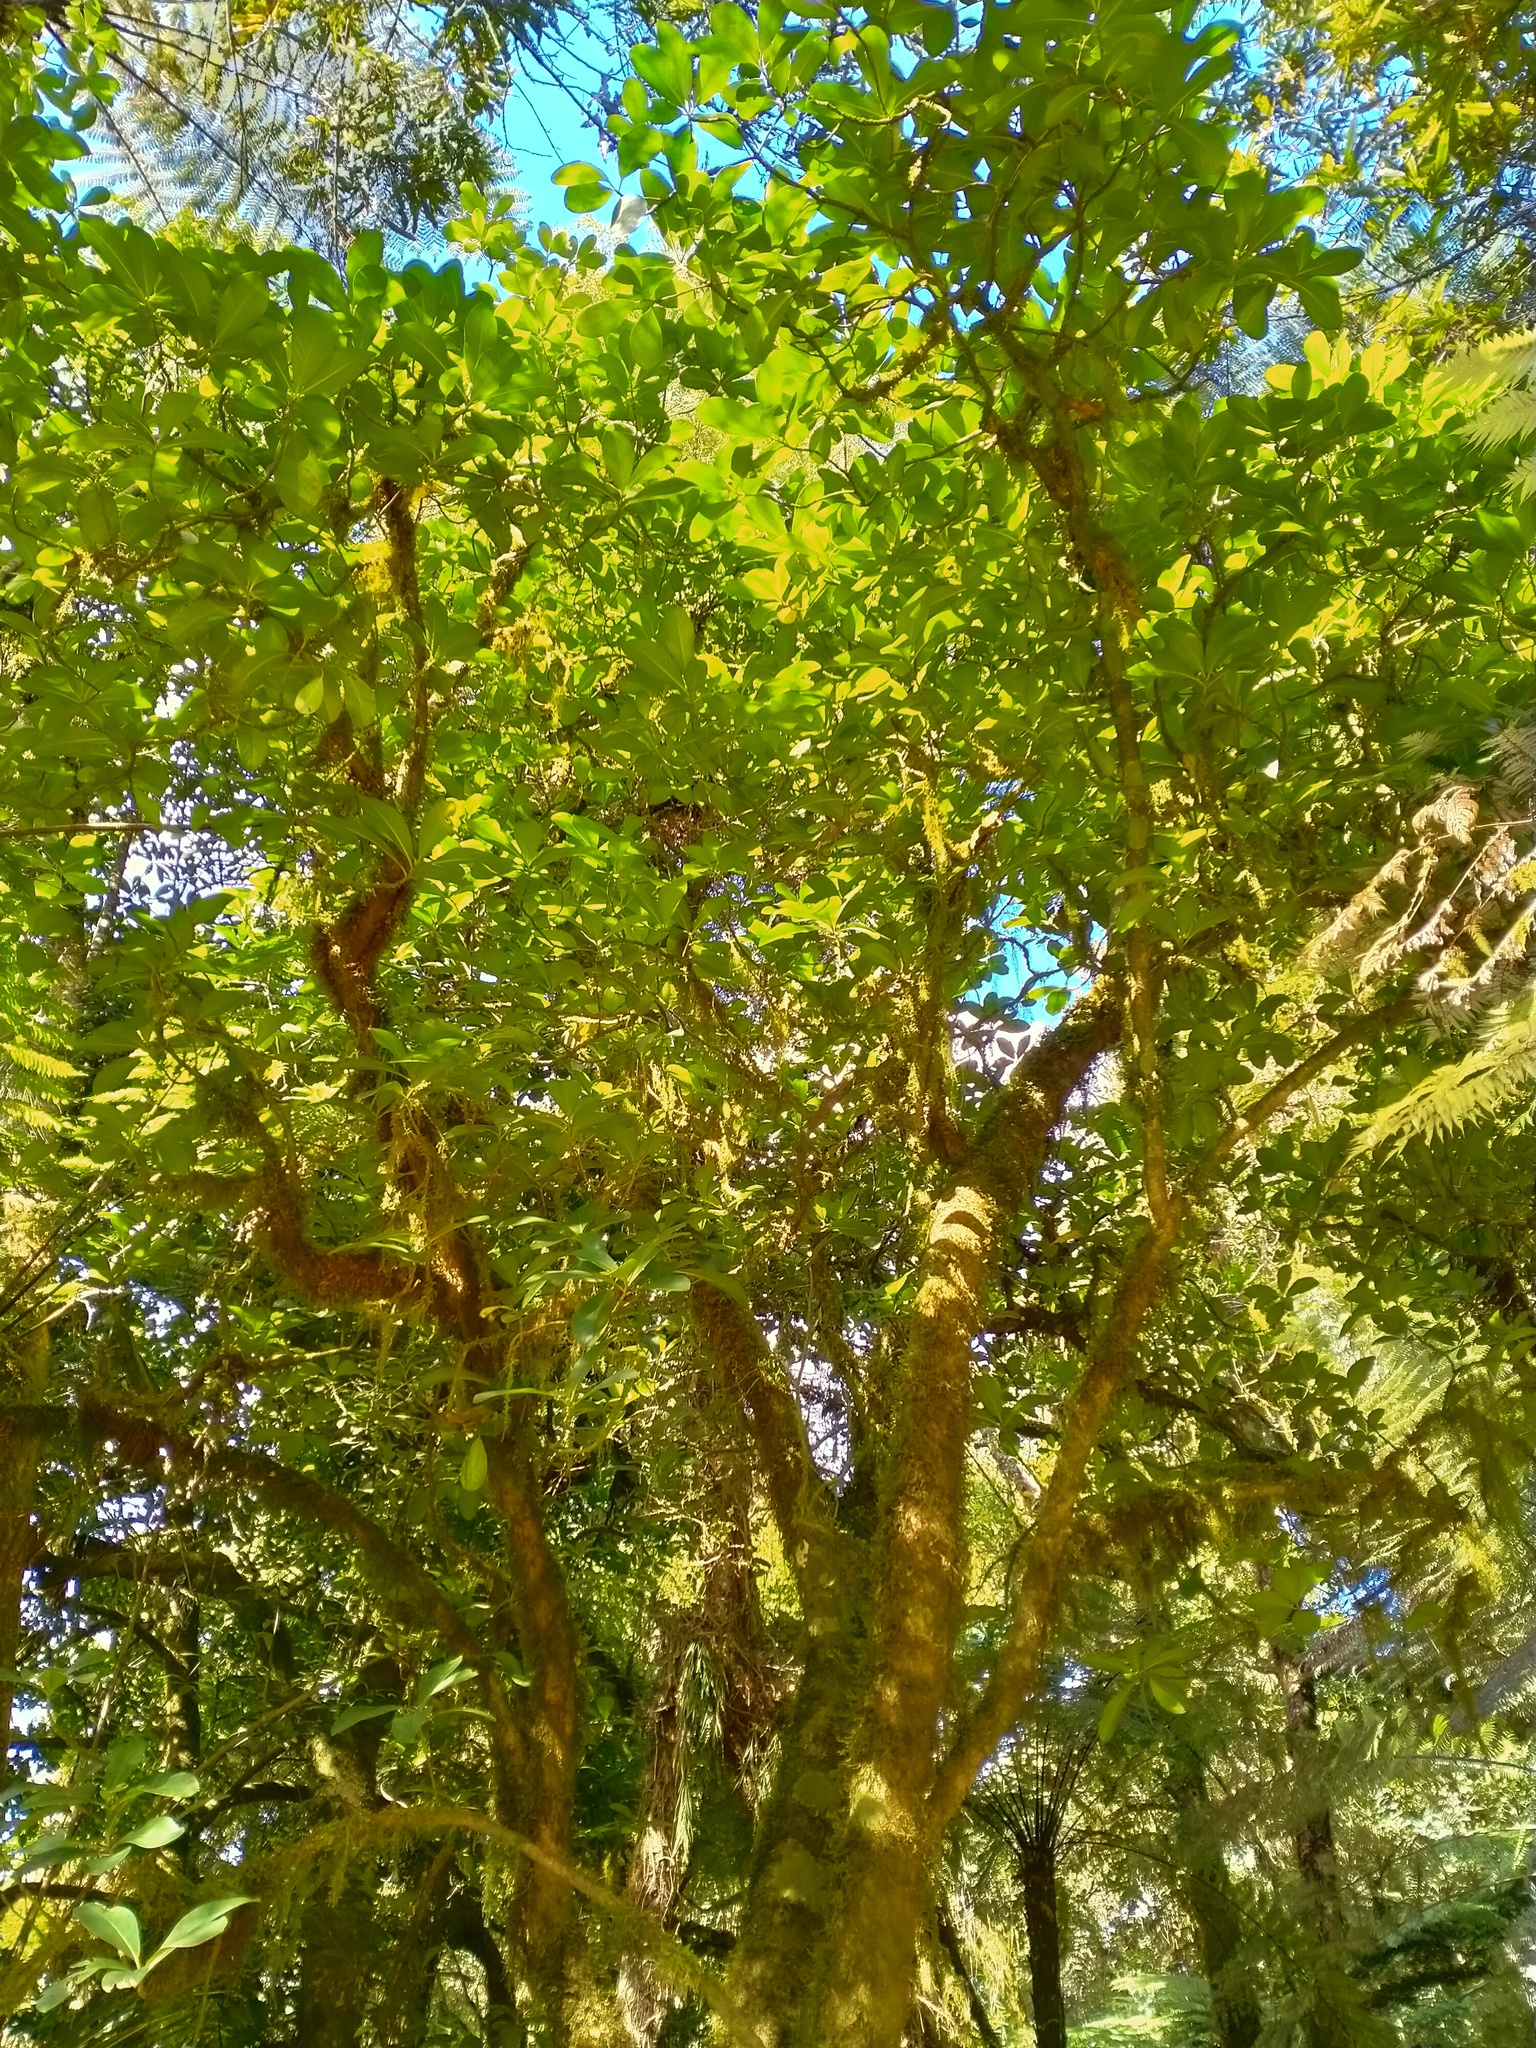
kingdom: Plantae
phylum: Tracheophyta
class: Magnoliopsida
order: Cucurbitales
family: Corynocarpaceae
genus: Corynocarpus
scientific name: Corynocarpus laevigatus
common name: New zealand laurel
